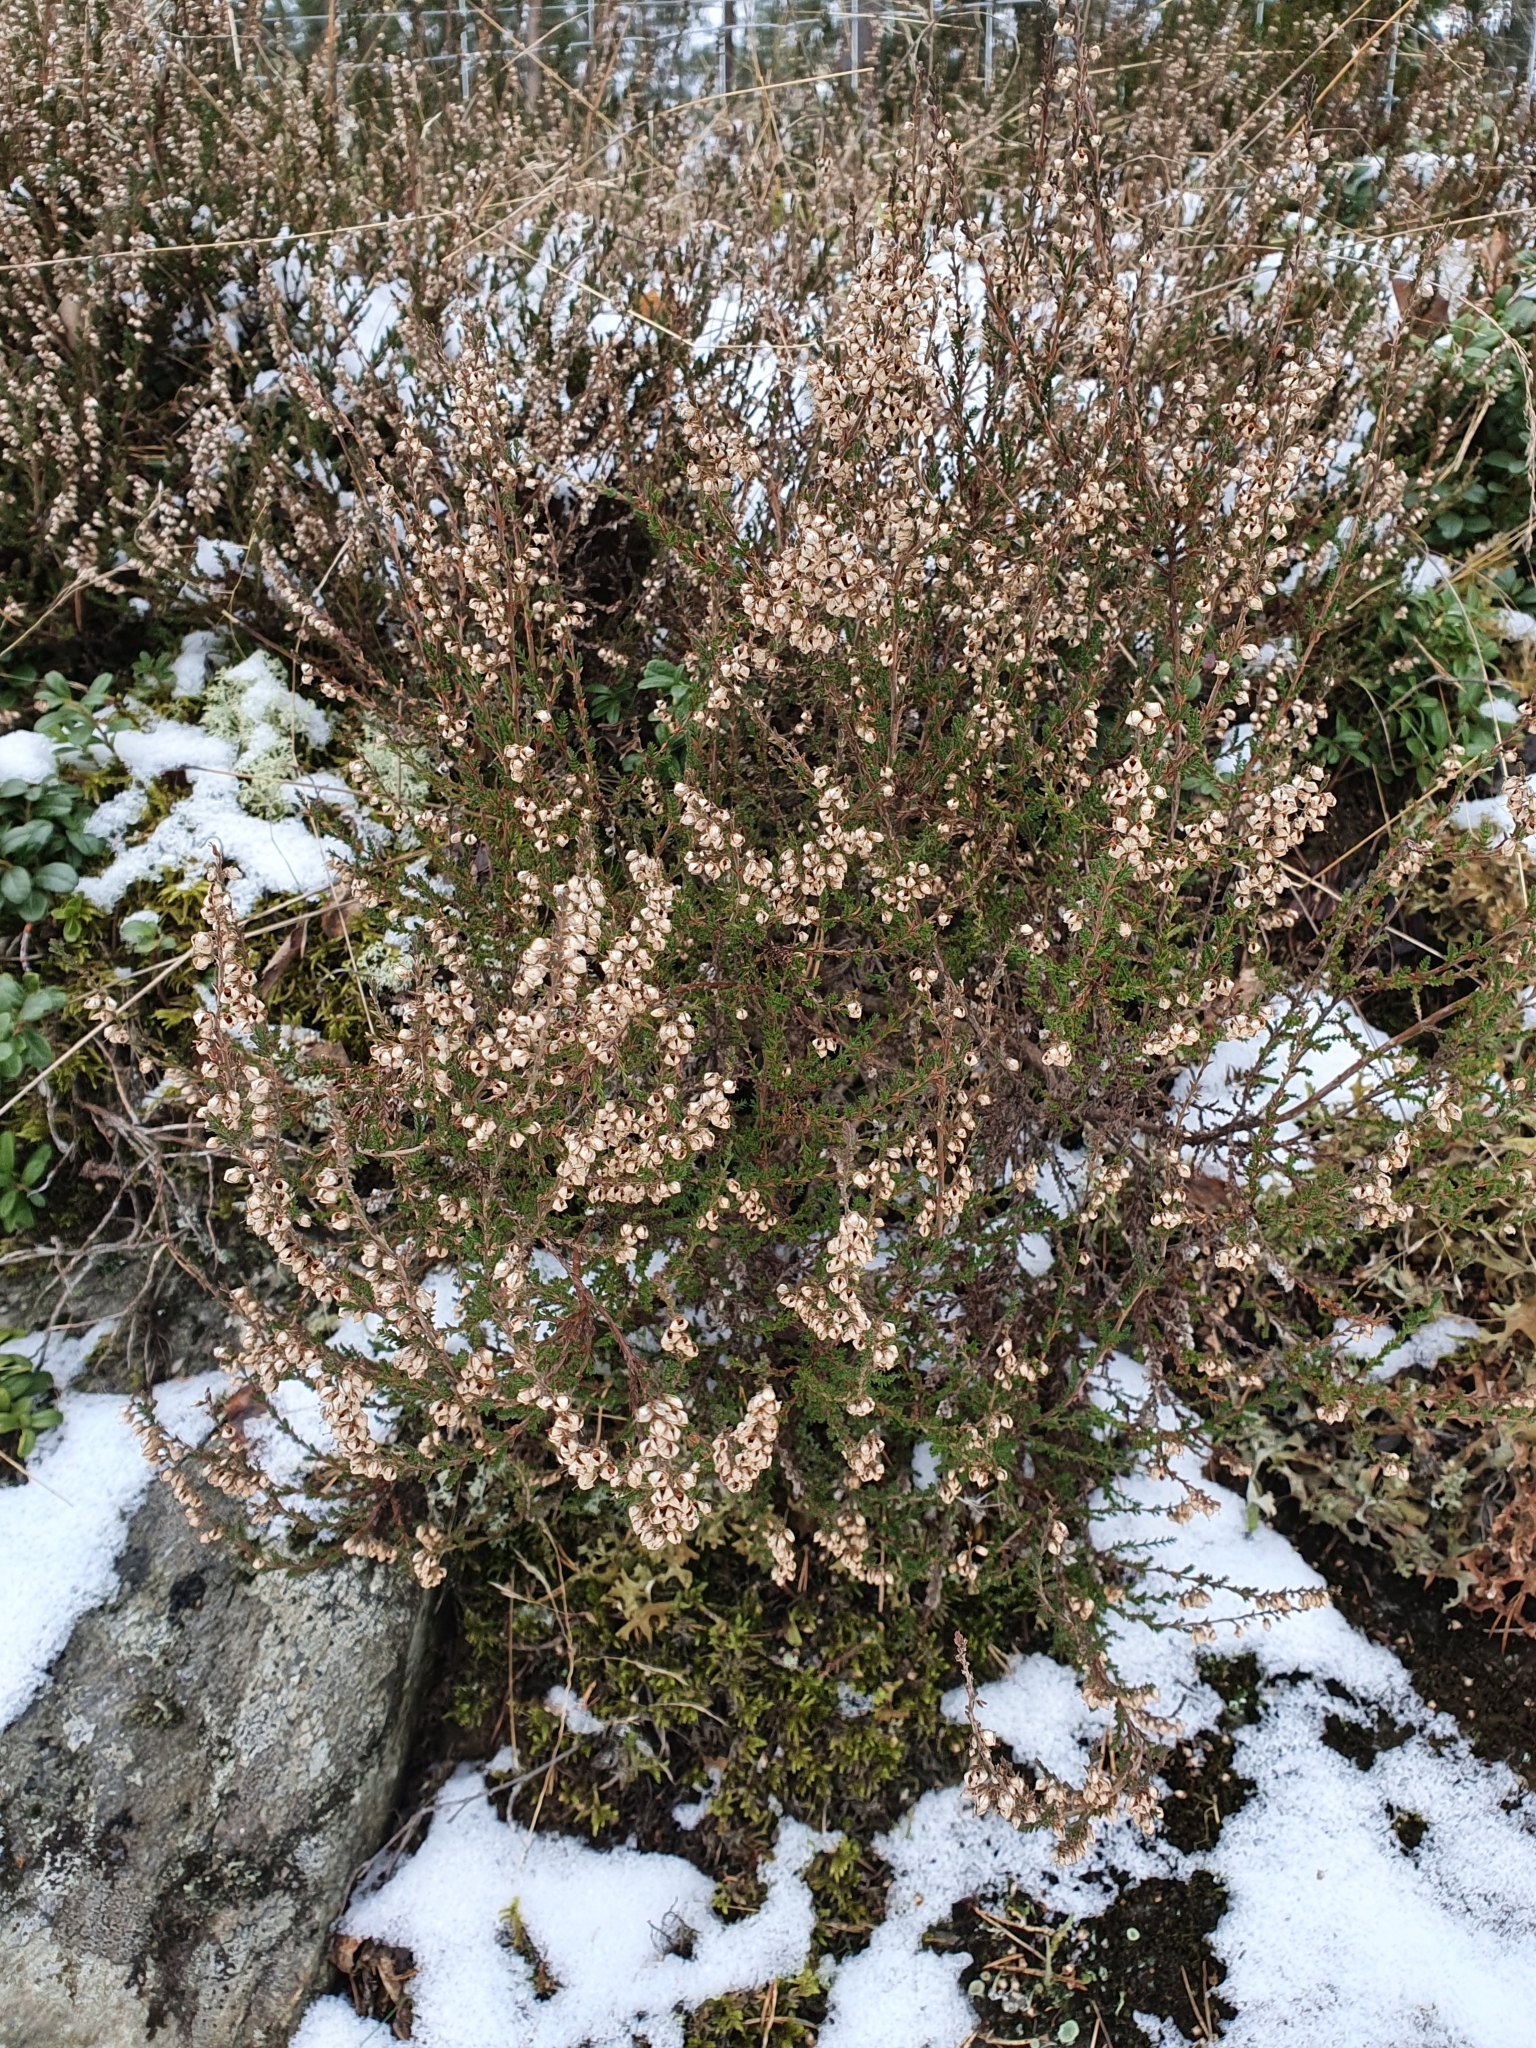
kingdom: Plantae
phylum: Tracheophyta
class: Magnoliopsida
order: Ericales
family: Ericaceae
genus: Calluna
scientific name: Calluna vulgaris
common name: Heather
